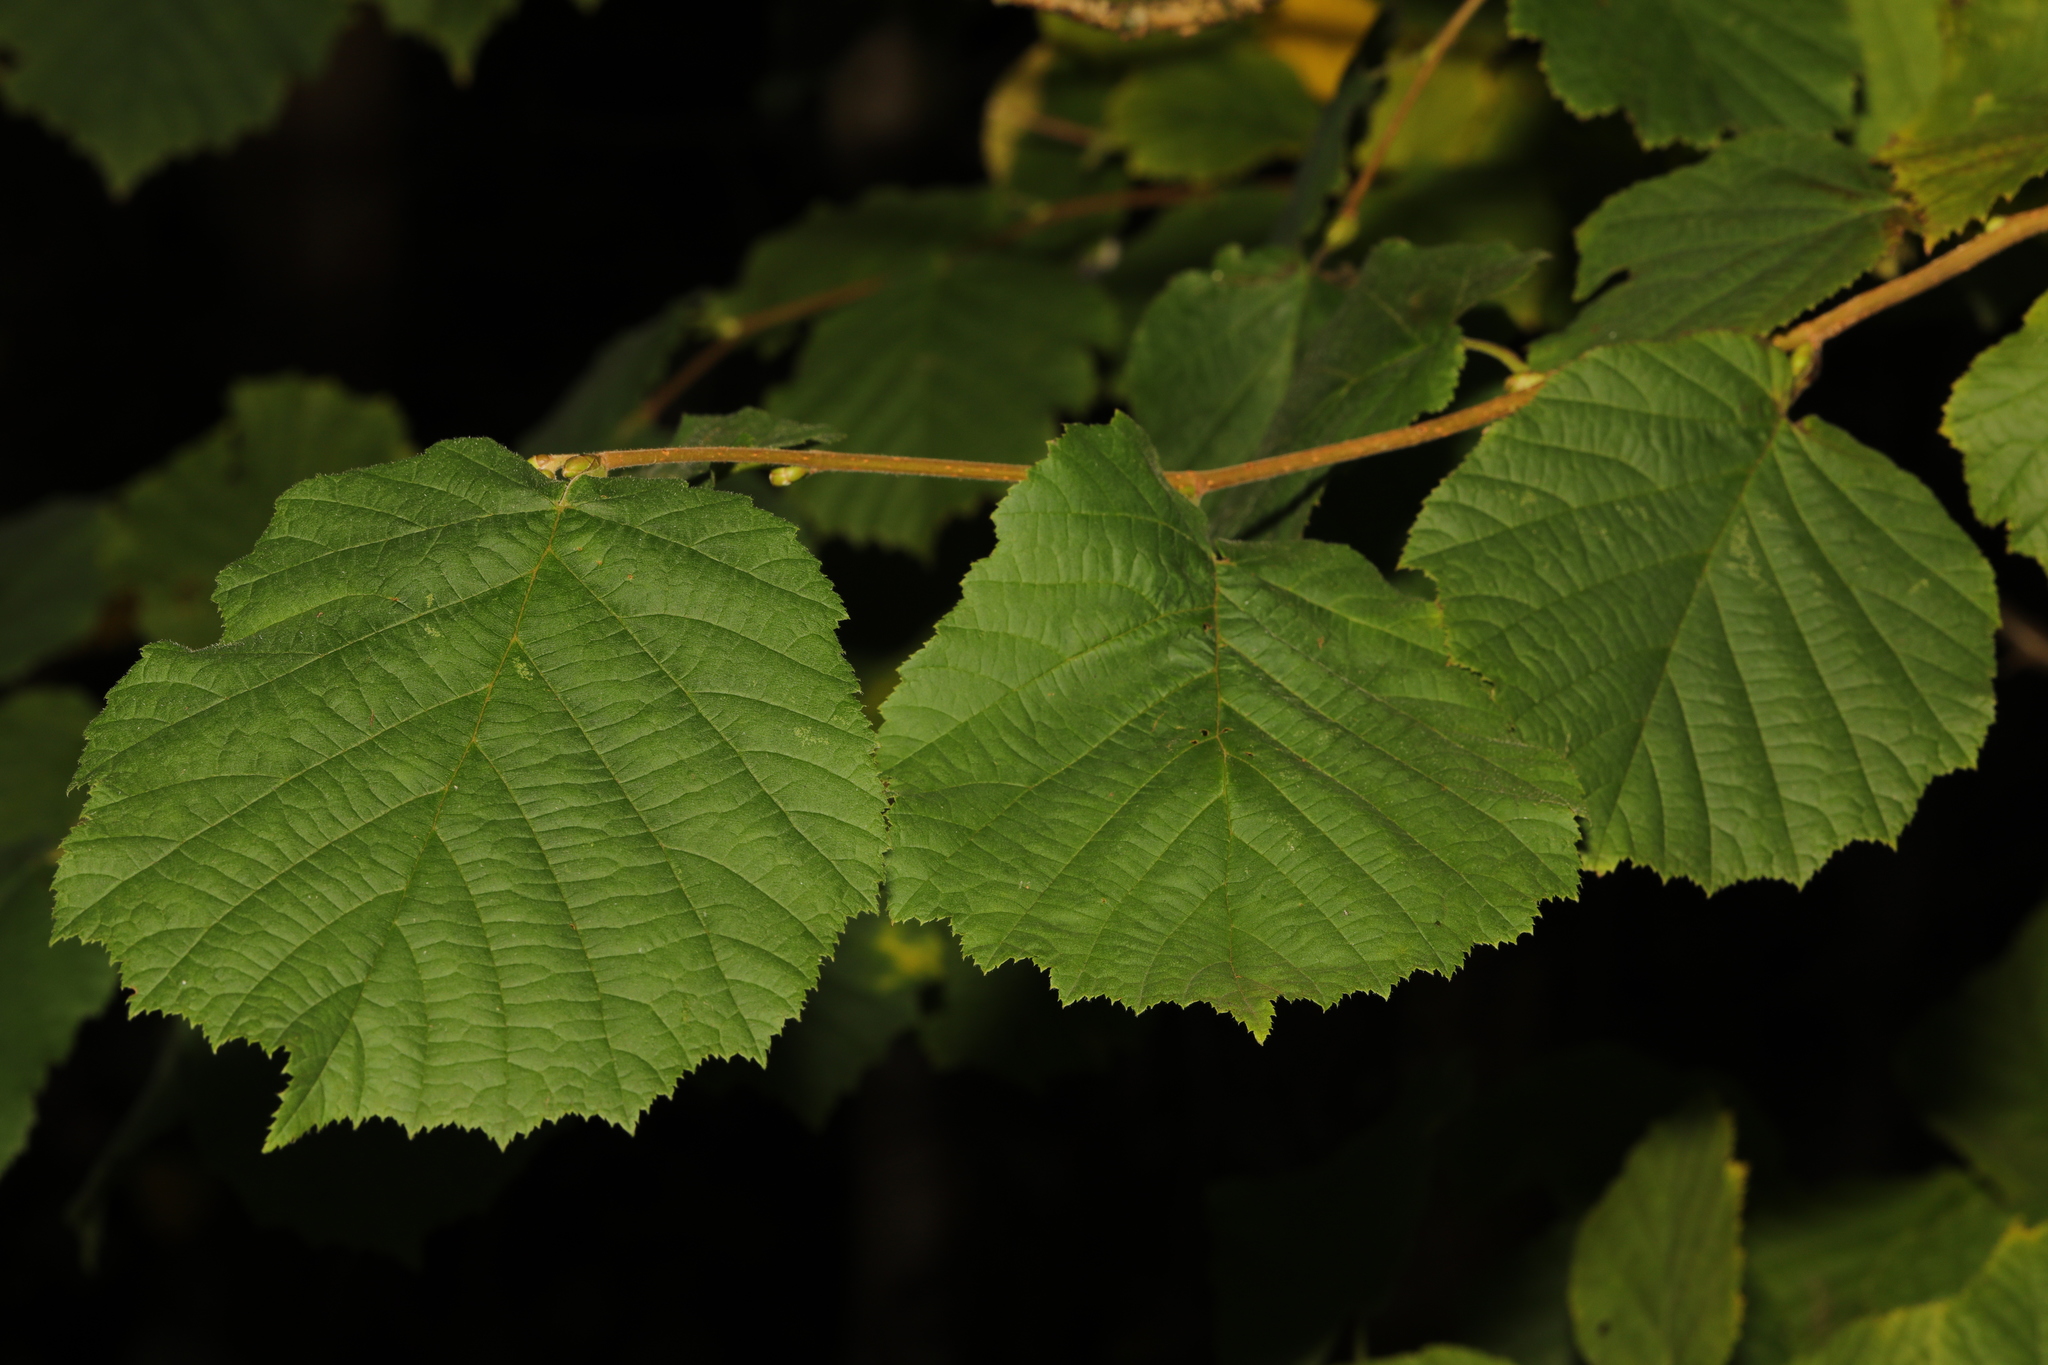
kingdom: Plantae
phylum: Tracheophyta
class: Magnoliopsida
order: Fagales
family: Betulaceae
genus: Corylus
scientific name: Corylus avellana
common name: European hazel
